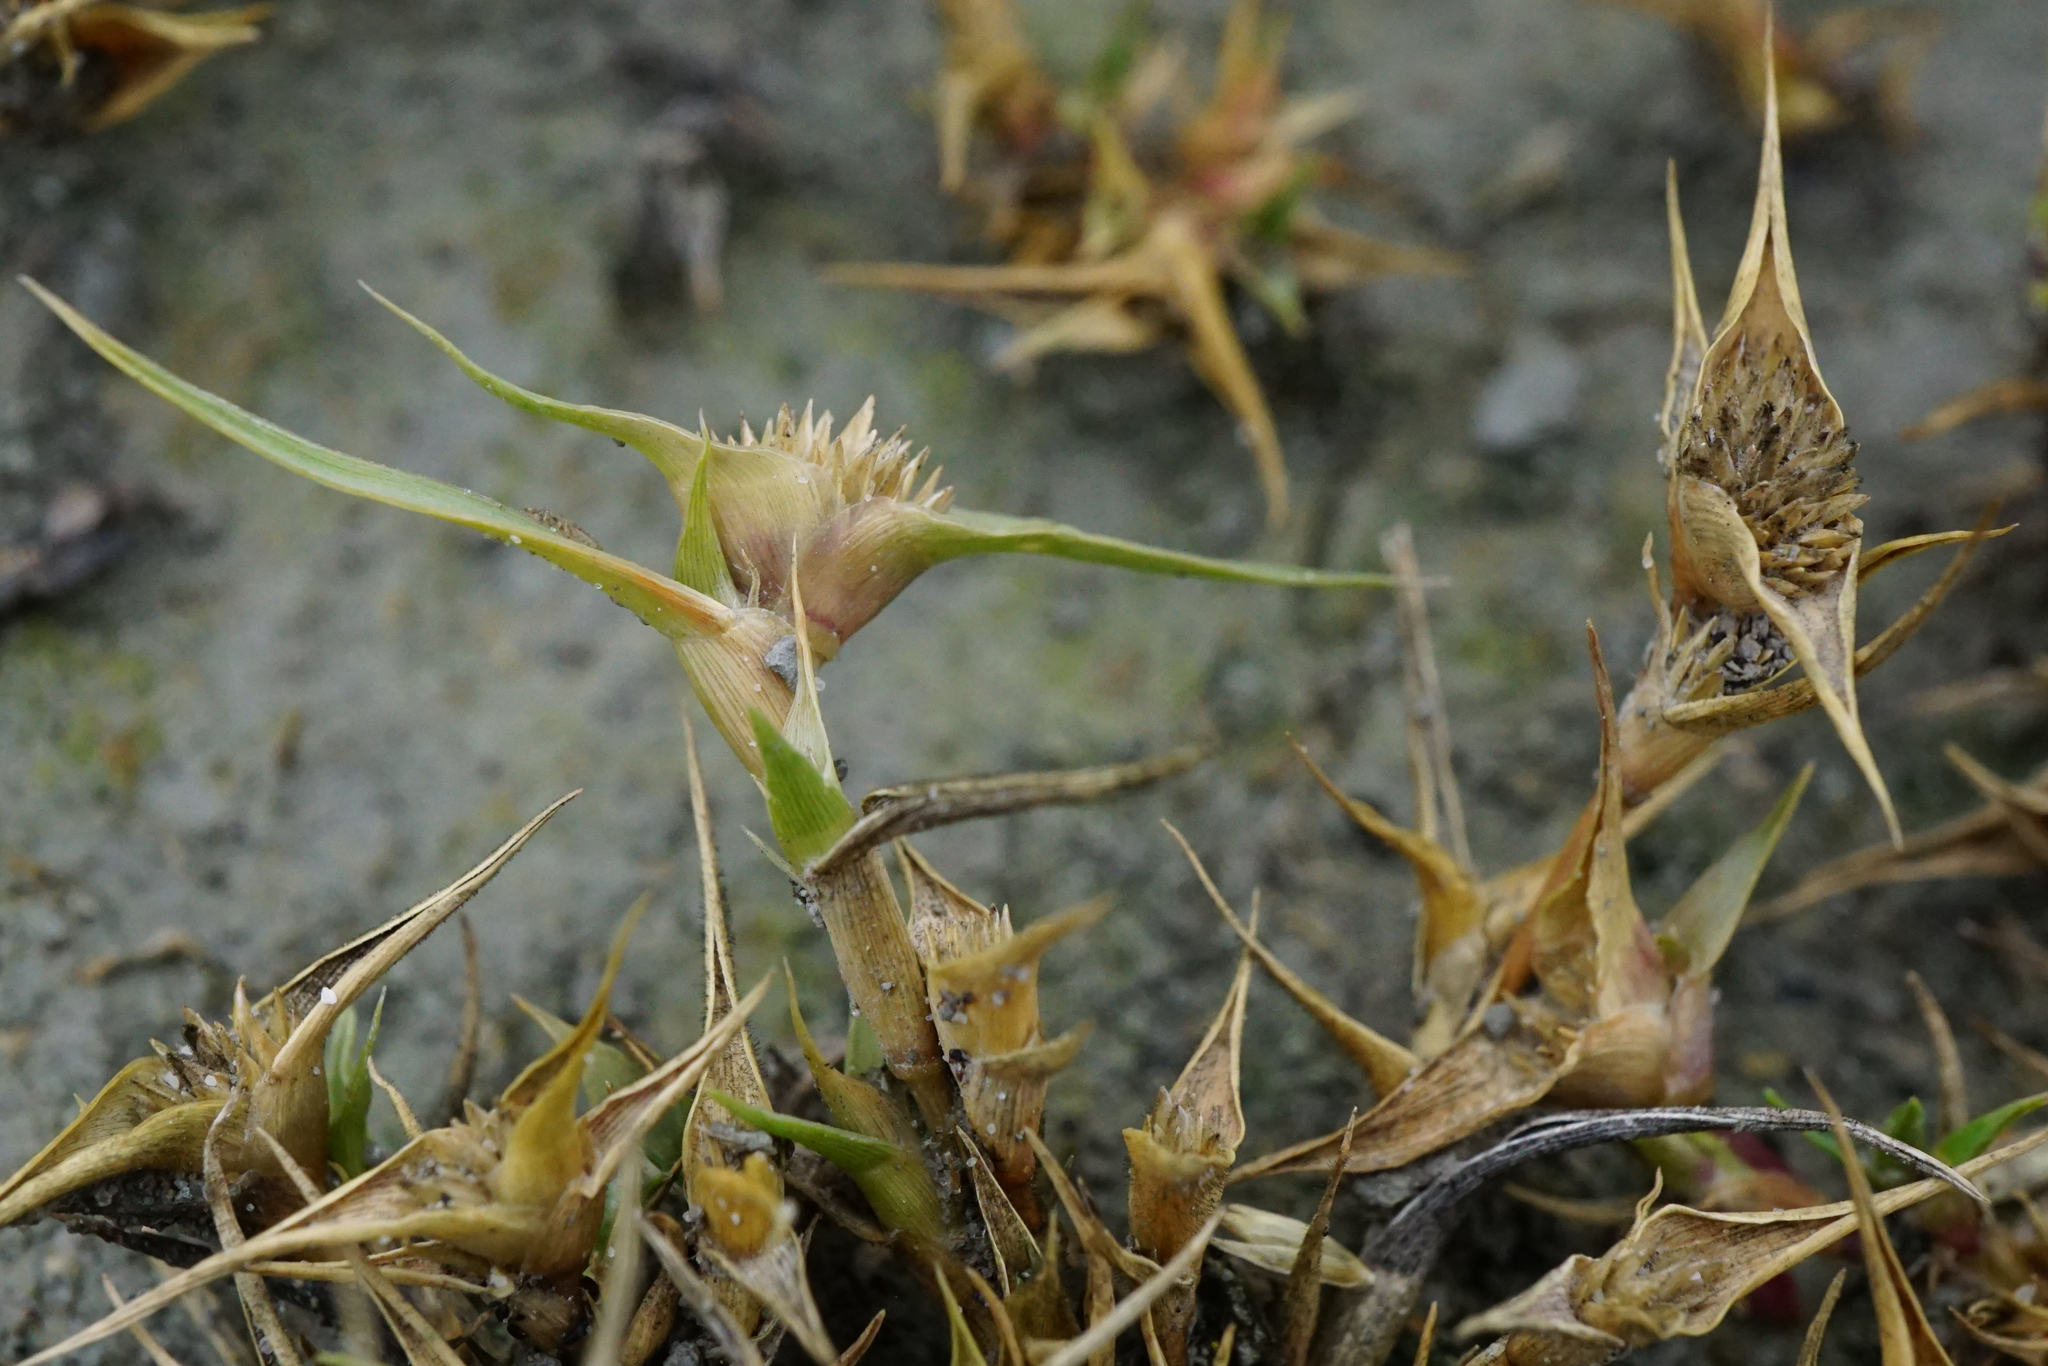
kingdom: Plantae
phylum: Tracheophyta
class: Liliopsida
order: Poales
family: Poaceae
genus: Sporobolus
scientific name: Sporobolus aculeatus
